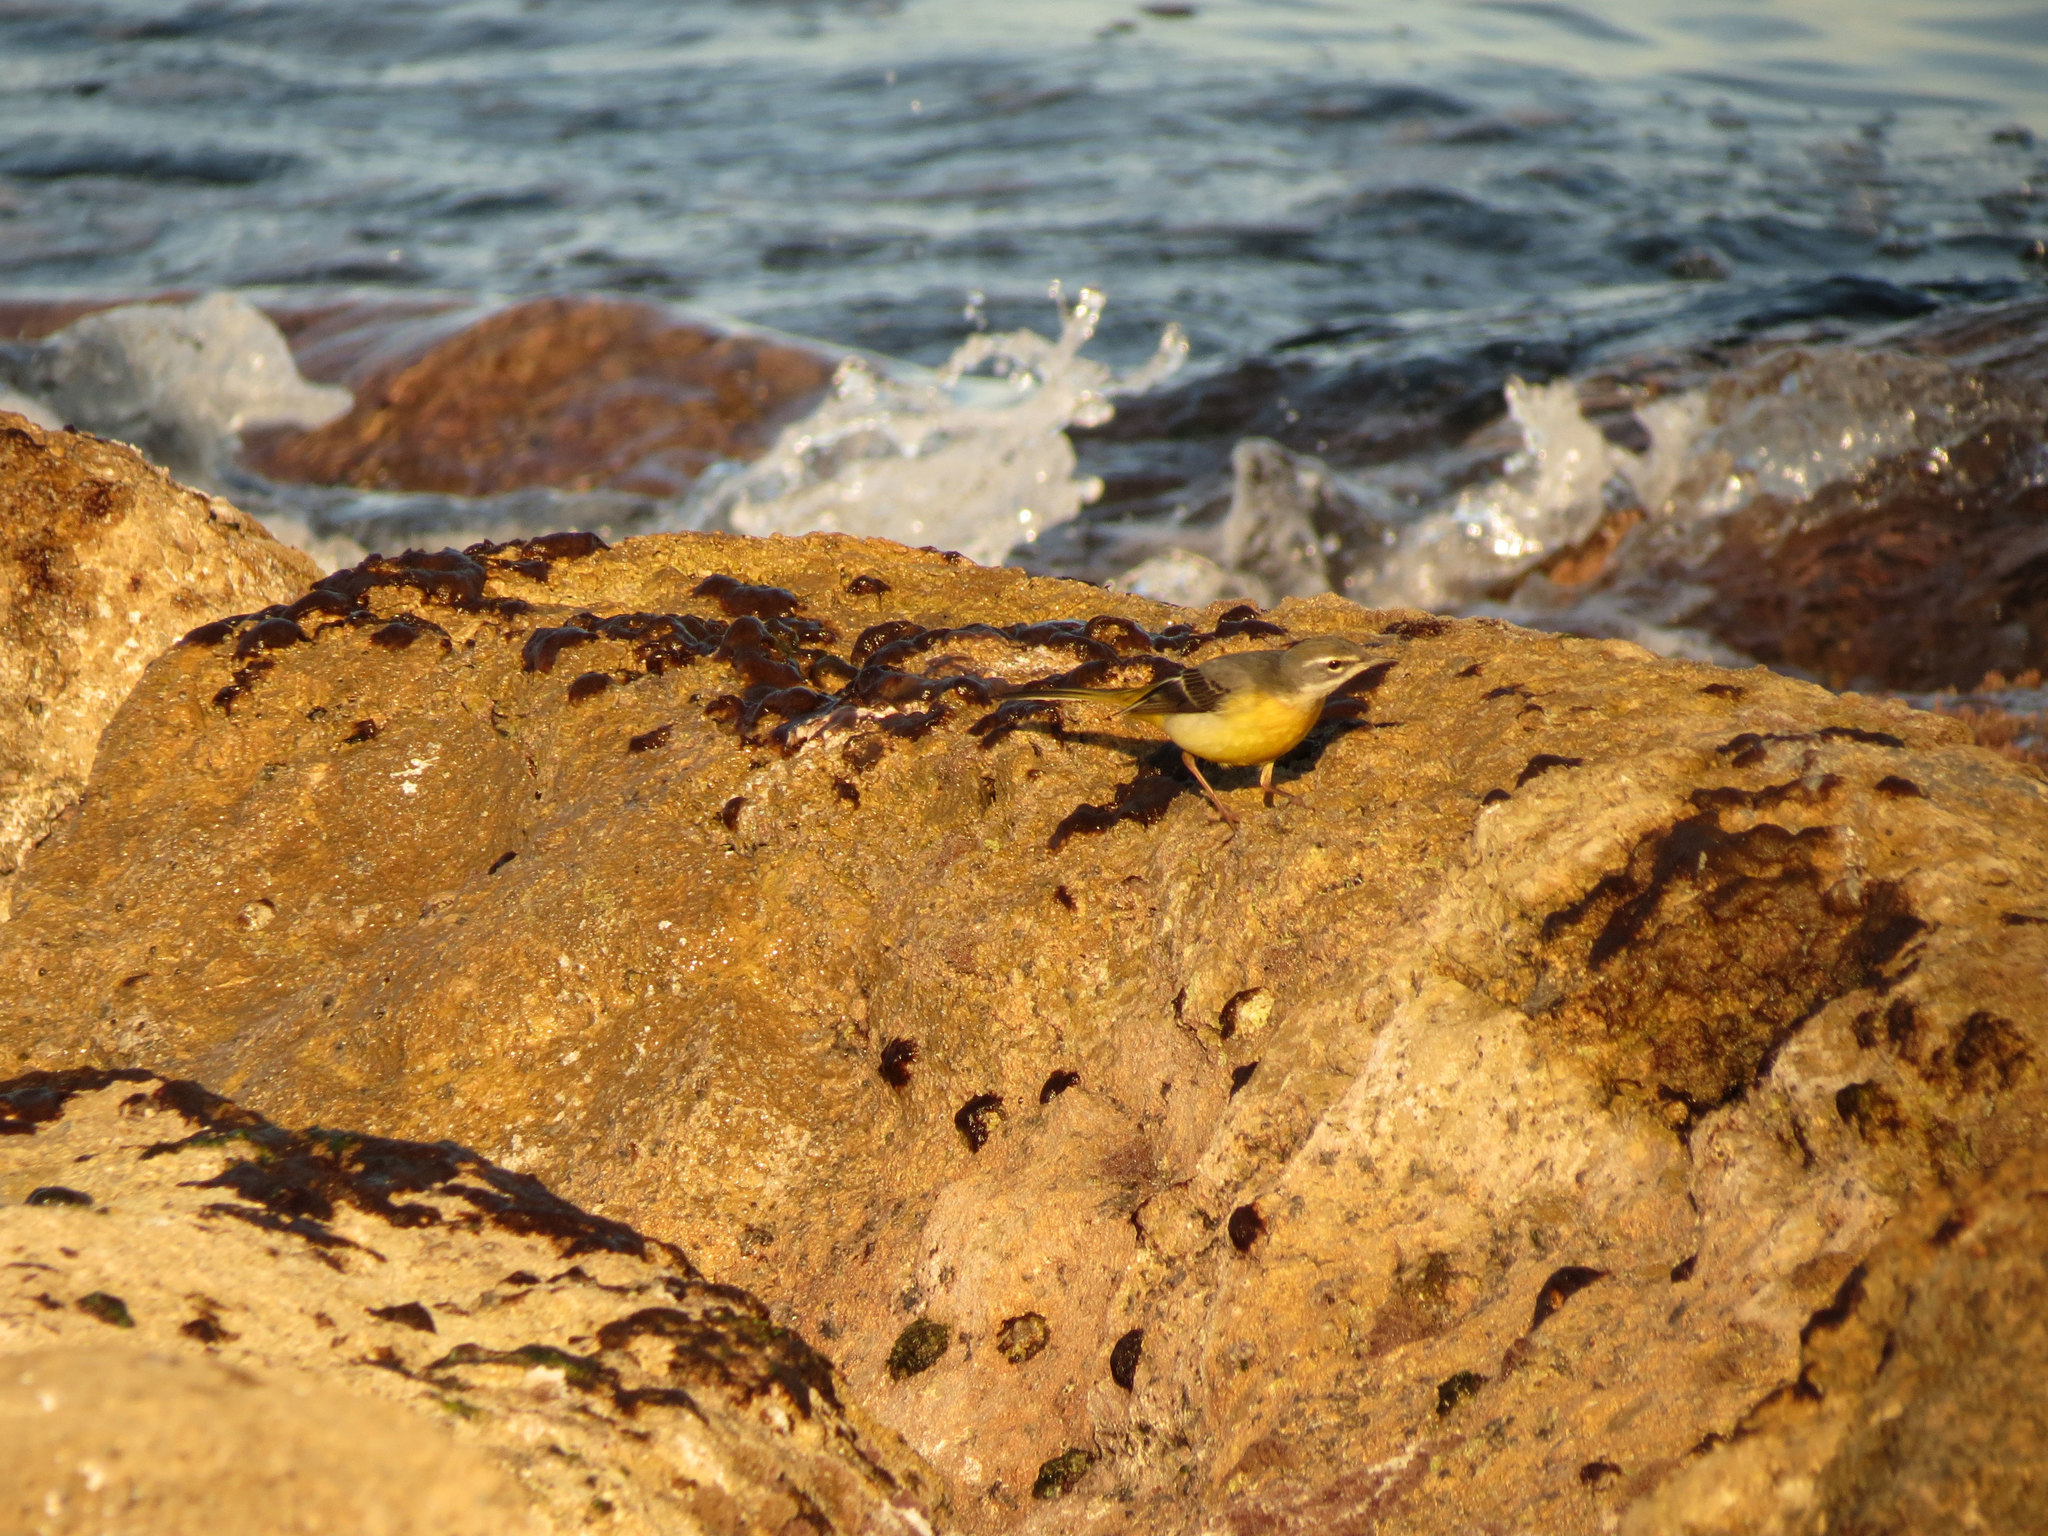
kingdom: Animalia
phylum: Chordata
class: Aves
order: Passeriformes
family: Motacillidae
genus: Motacilla
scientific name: Motacilla cinerea
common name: Grey wagtail
